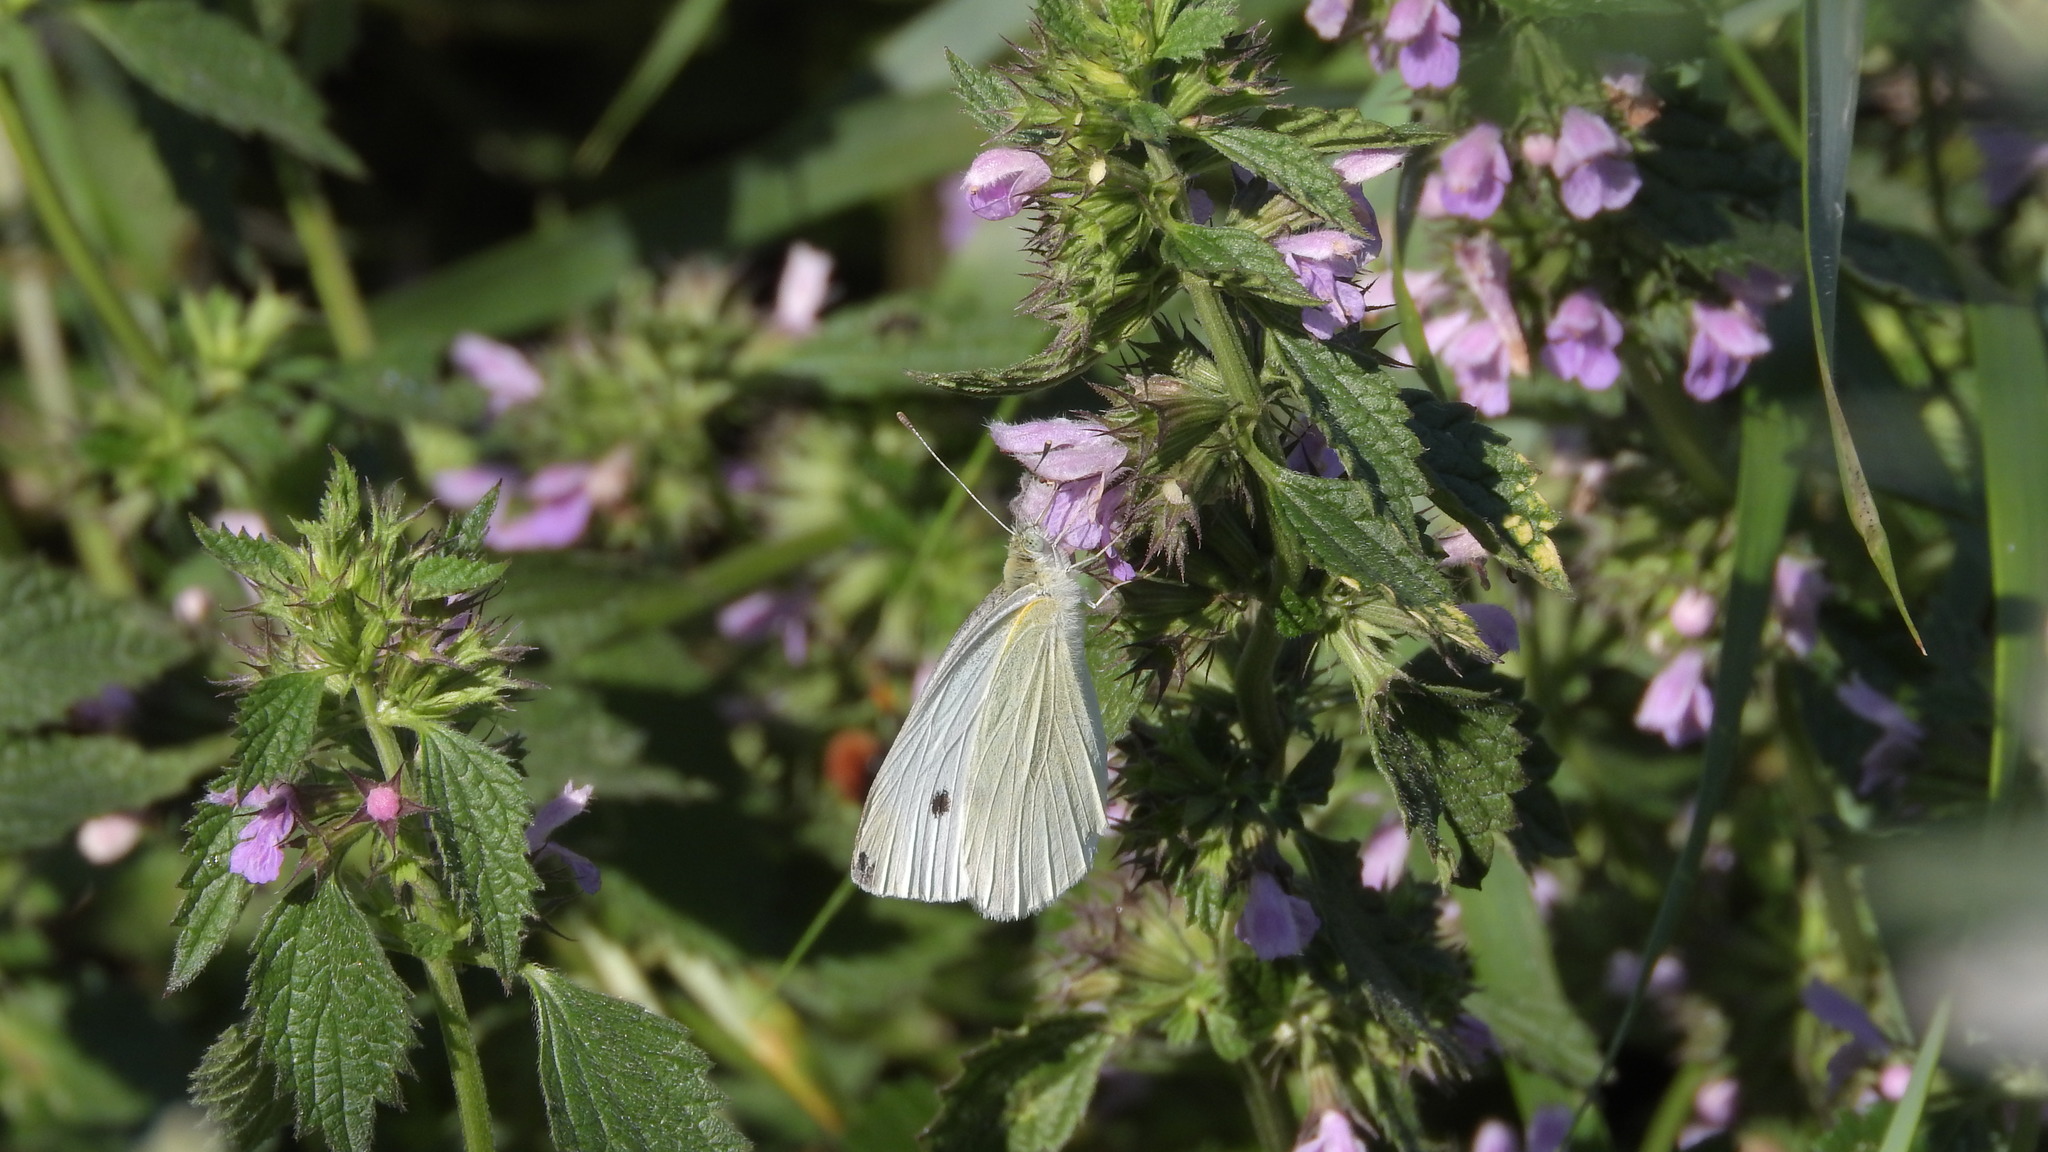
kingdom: Animalia
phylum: Arthropoda
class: Insecta
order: Lepidoptera
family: Pieridae
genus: Pieris
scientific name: Pieris rapae
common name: Small white
